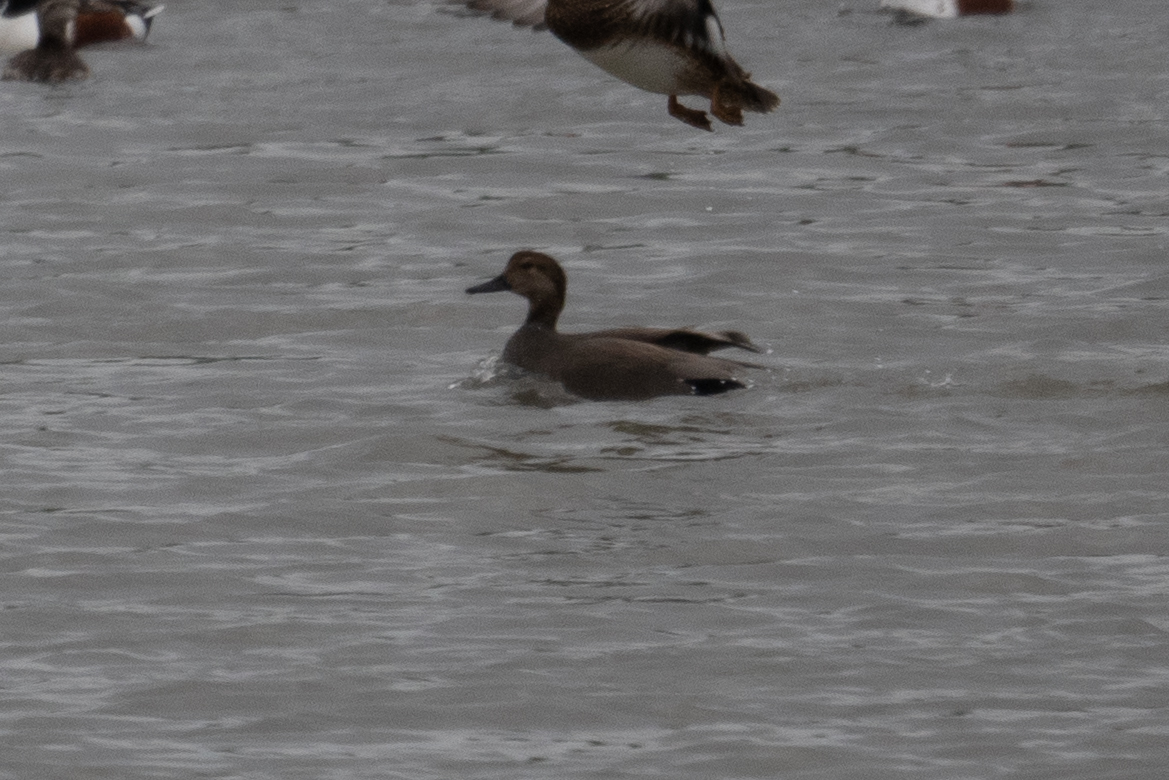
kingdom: Animalia
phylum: Chordata
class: Aves
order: Anseriformes
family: Anatidae
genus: Mareca
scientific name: Mareca strepera
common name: Gadwall
